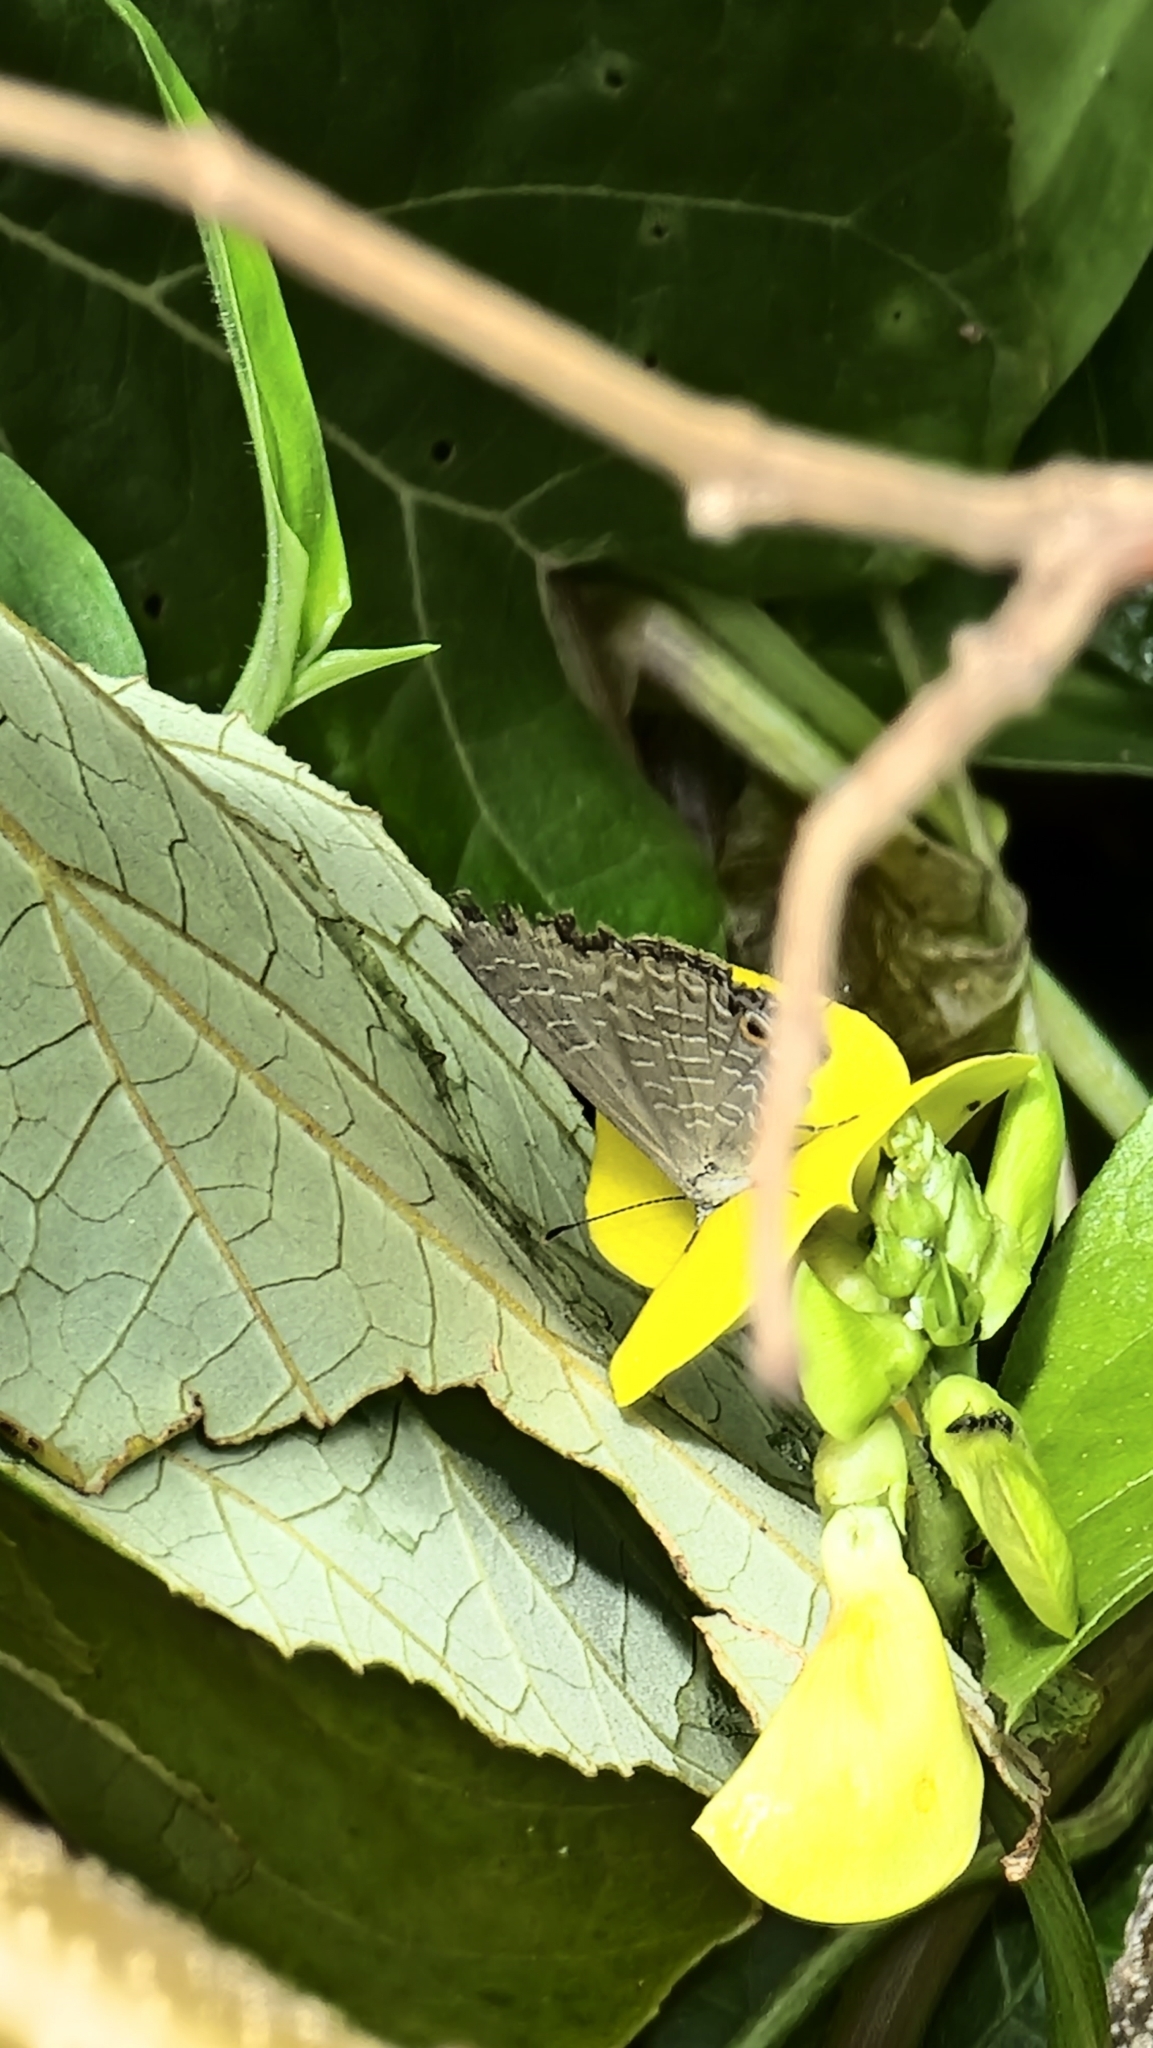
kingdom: Animalia
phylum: Arthropoda
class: Insecta
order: Lepidoptera
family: Lycaenidae
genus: Jamides
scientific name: Jamides phaseli
